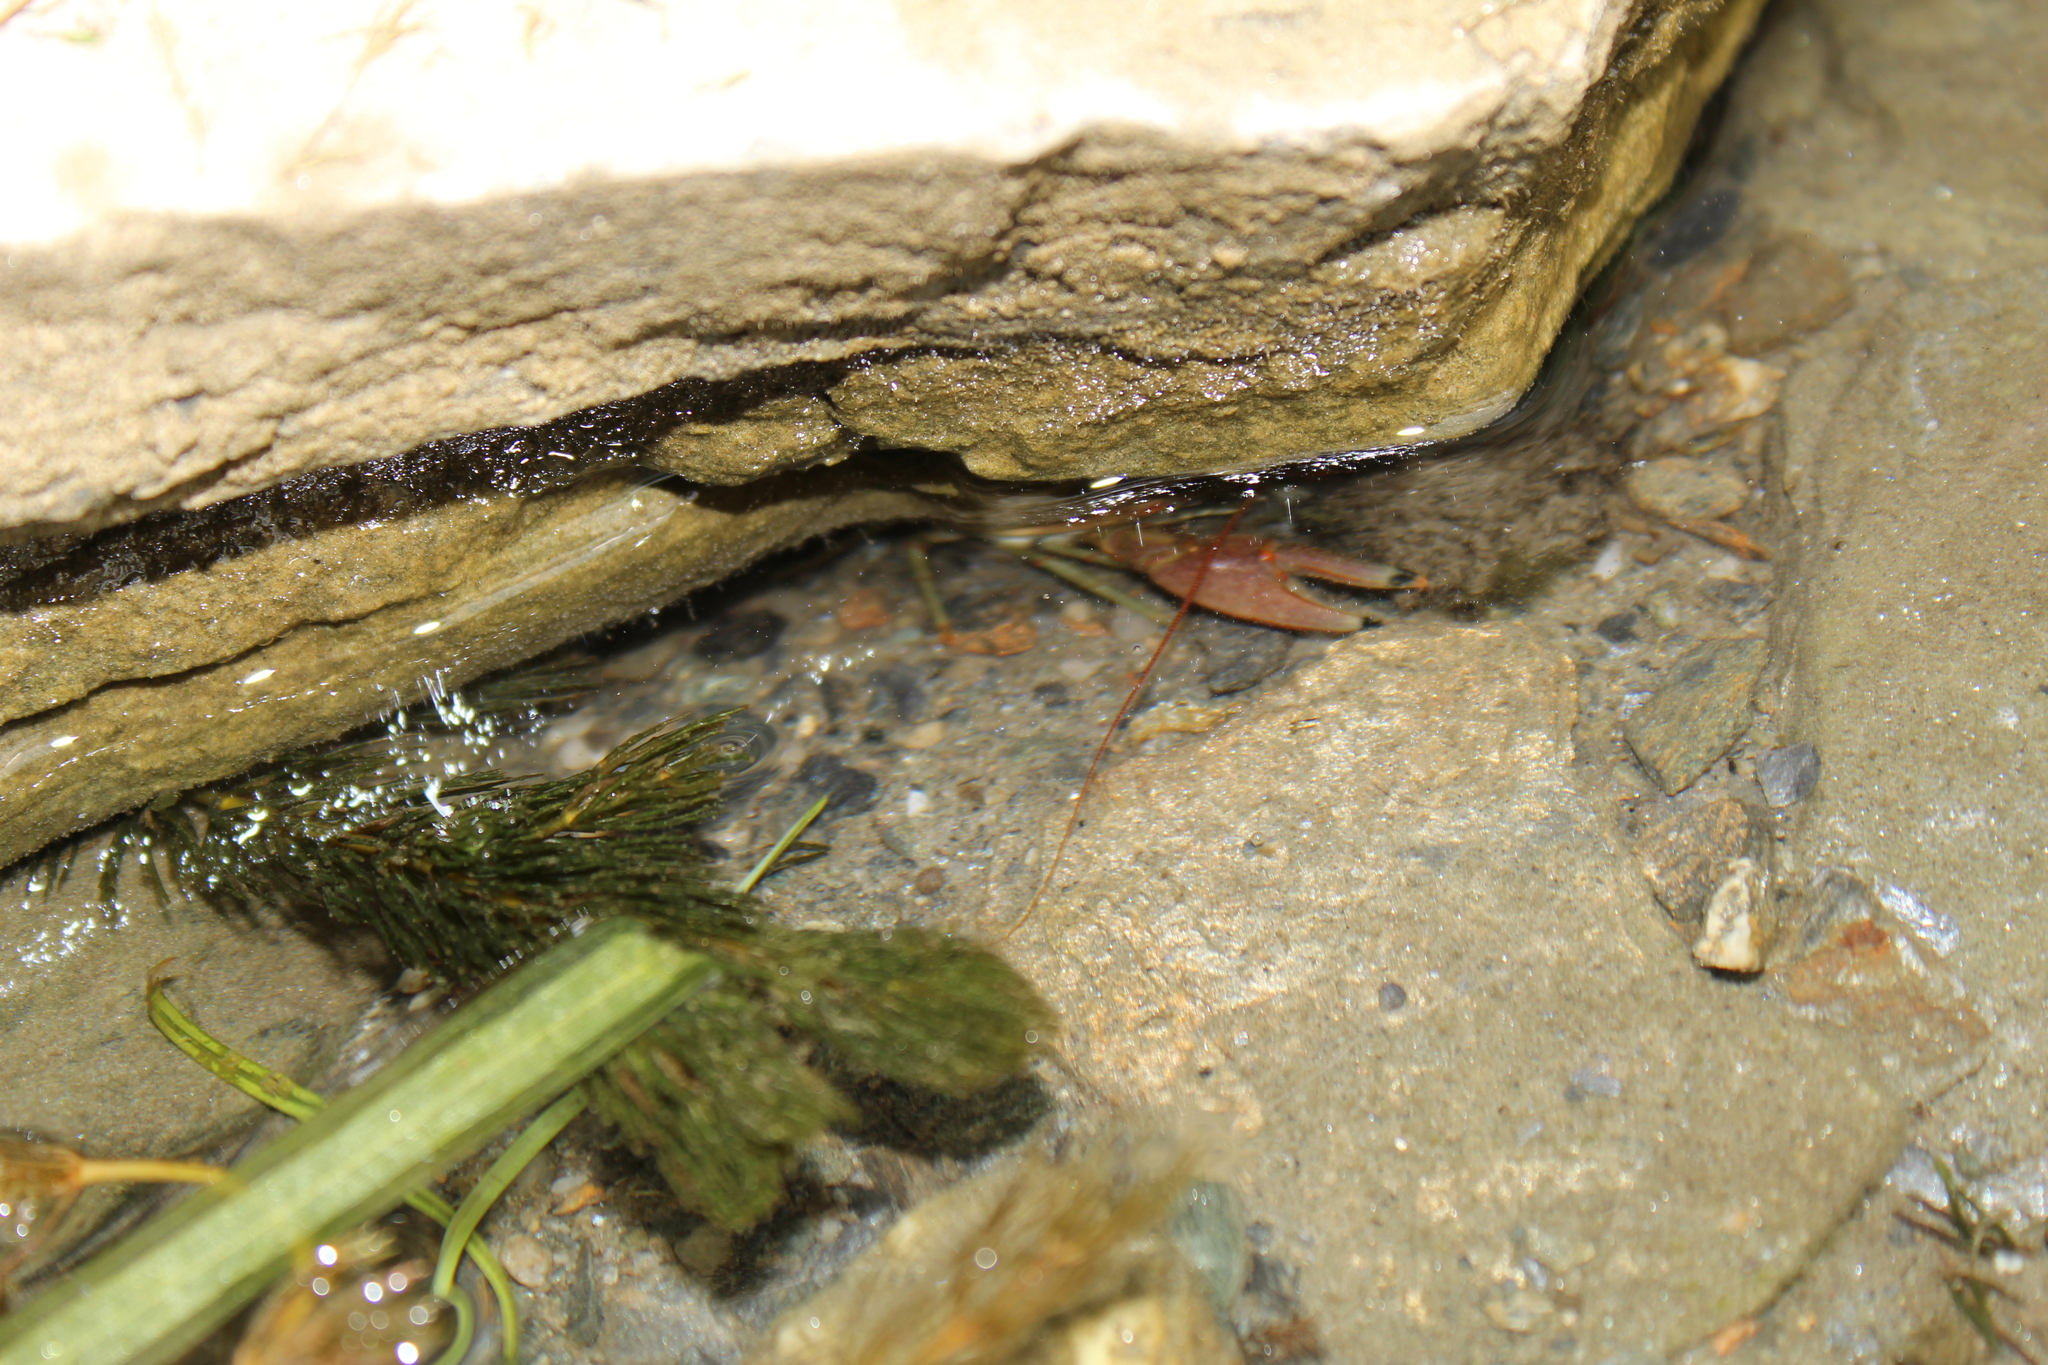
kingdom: Animalia
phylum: Arthropoda
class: Malacostraca
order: Decapoda
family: Cambaridae
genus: Faxonius
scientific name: Faxonius rusticus
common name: Rusty crayfish
